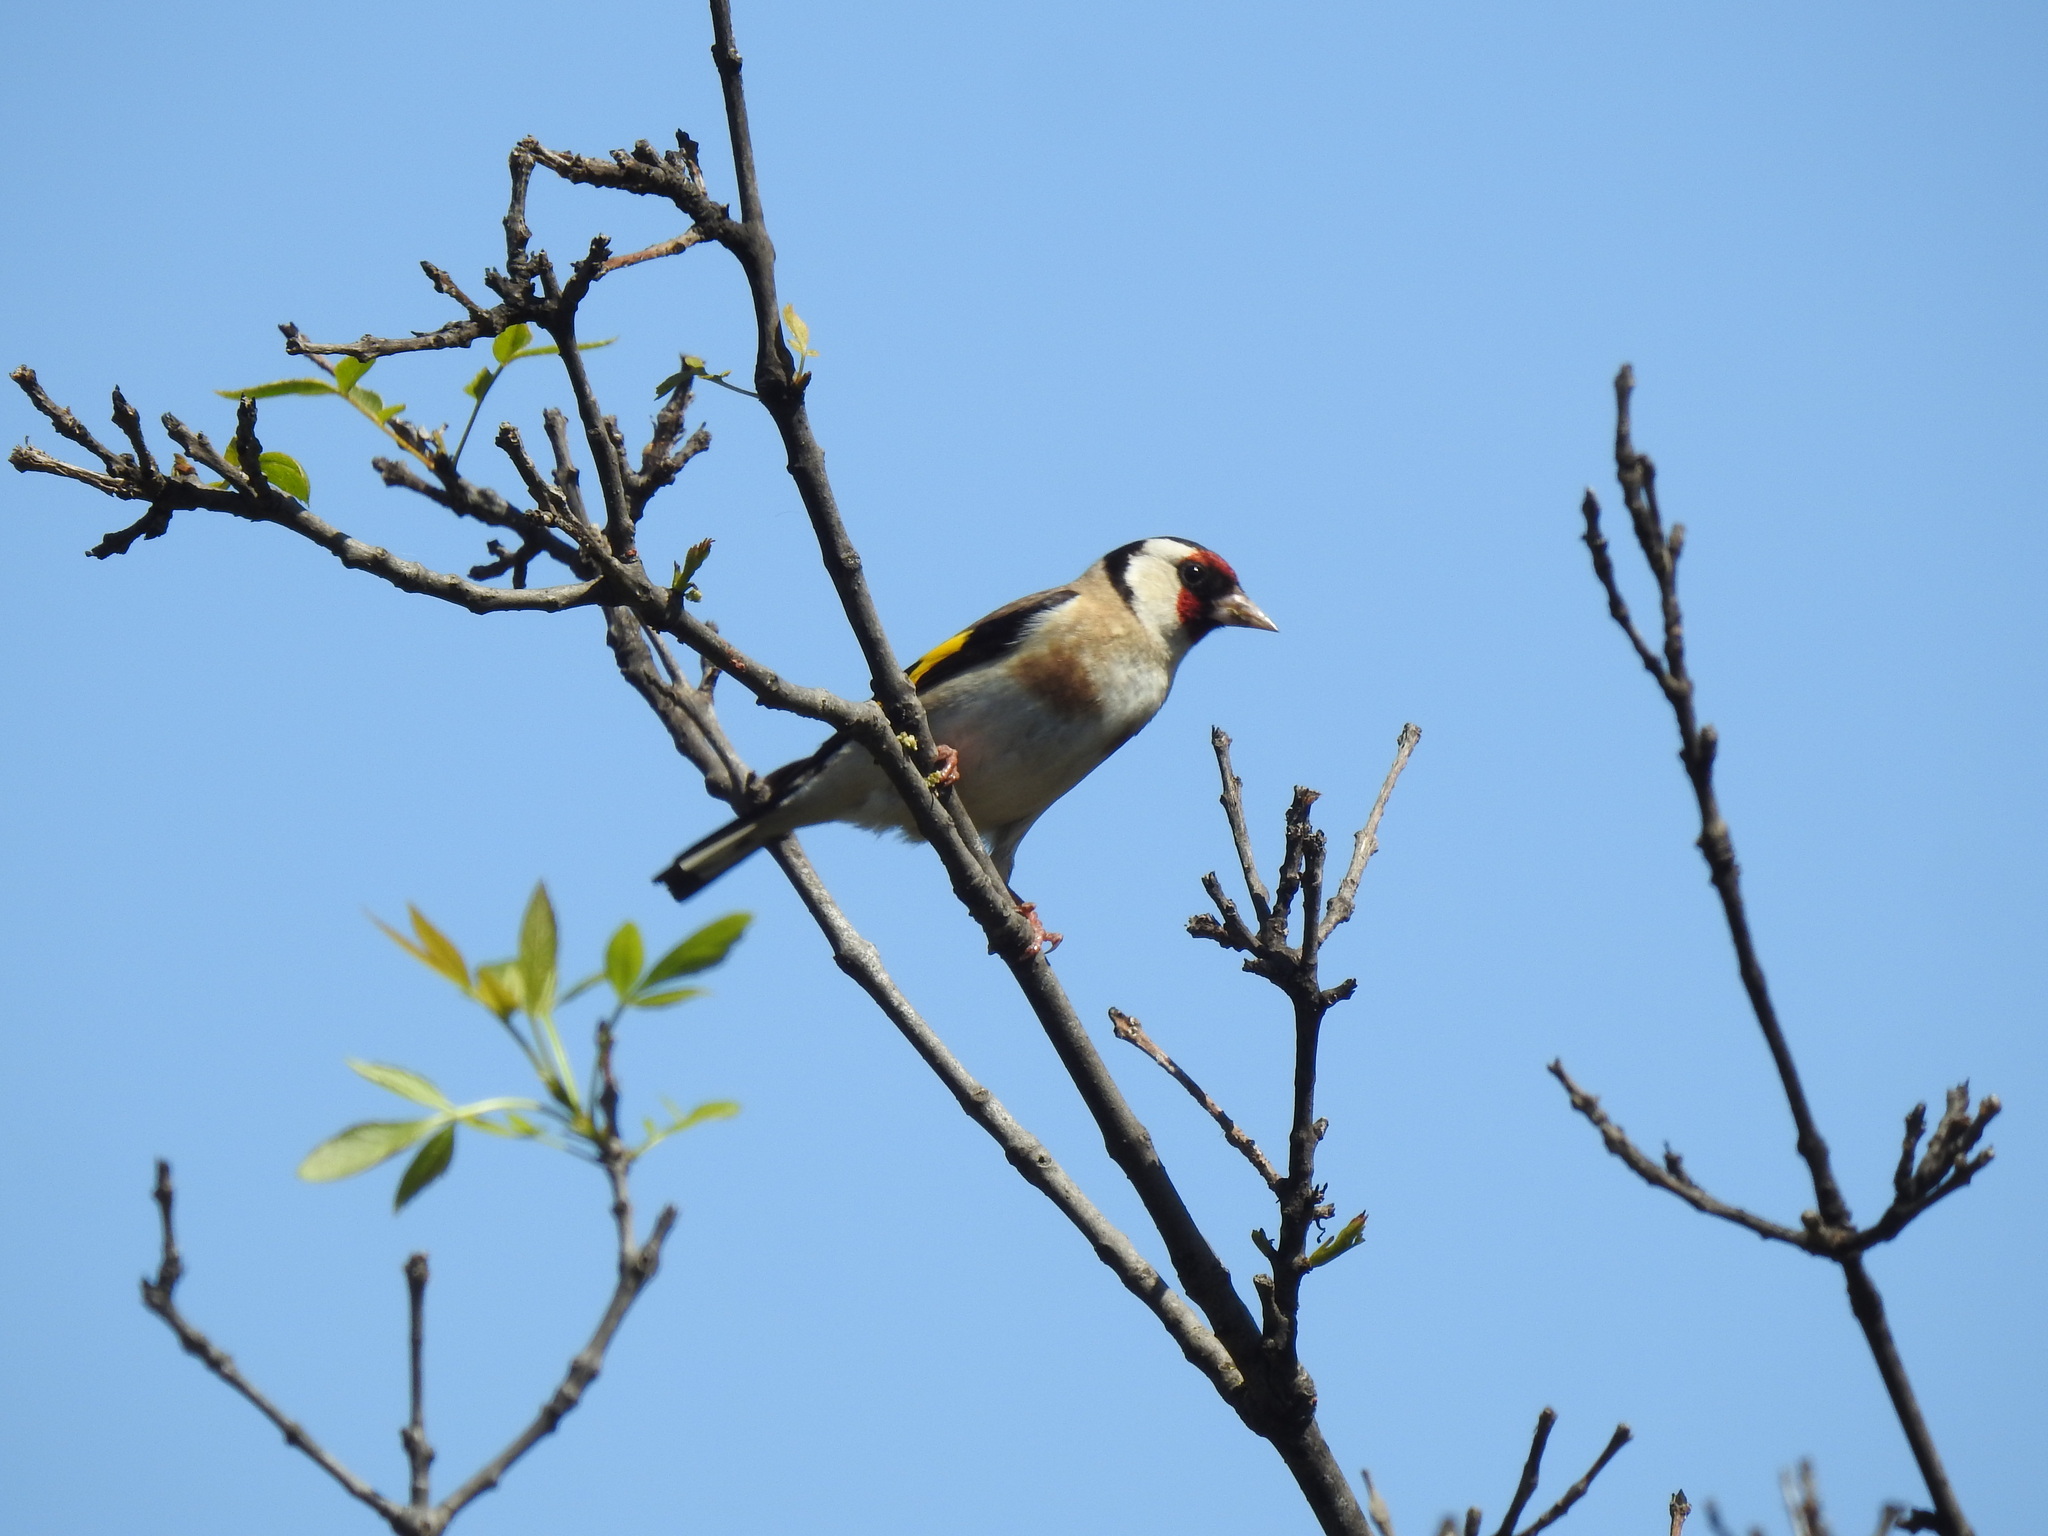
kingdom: Animalia
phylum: Chordata
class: Aves
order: Passeriformes
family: Fringillidae
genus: Carduelis
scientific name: Carduelis carduelis
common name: European goldfinch
